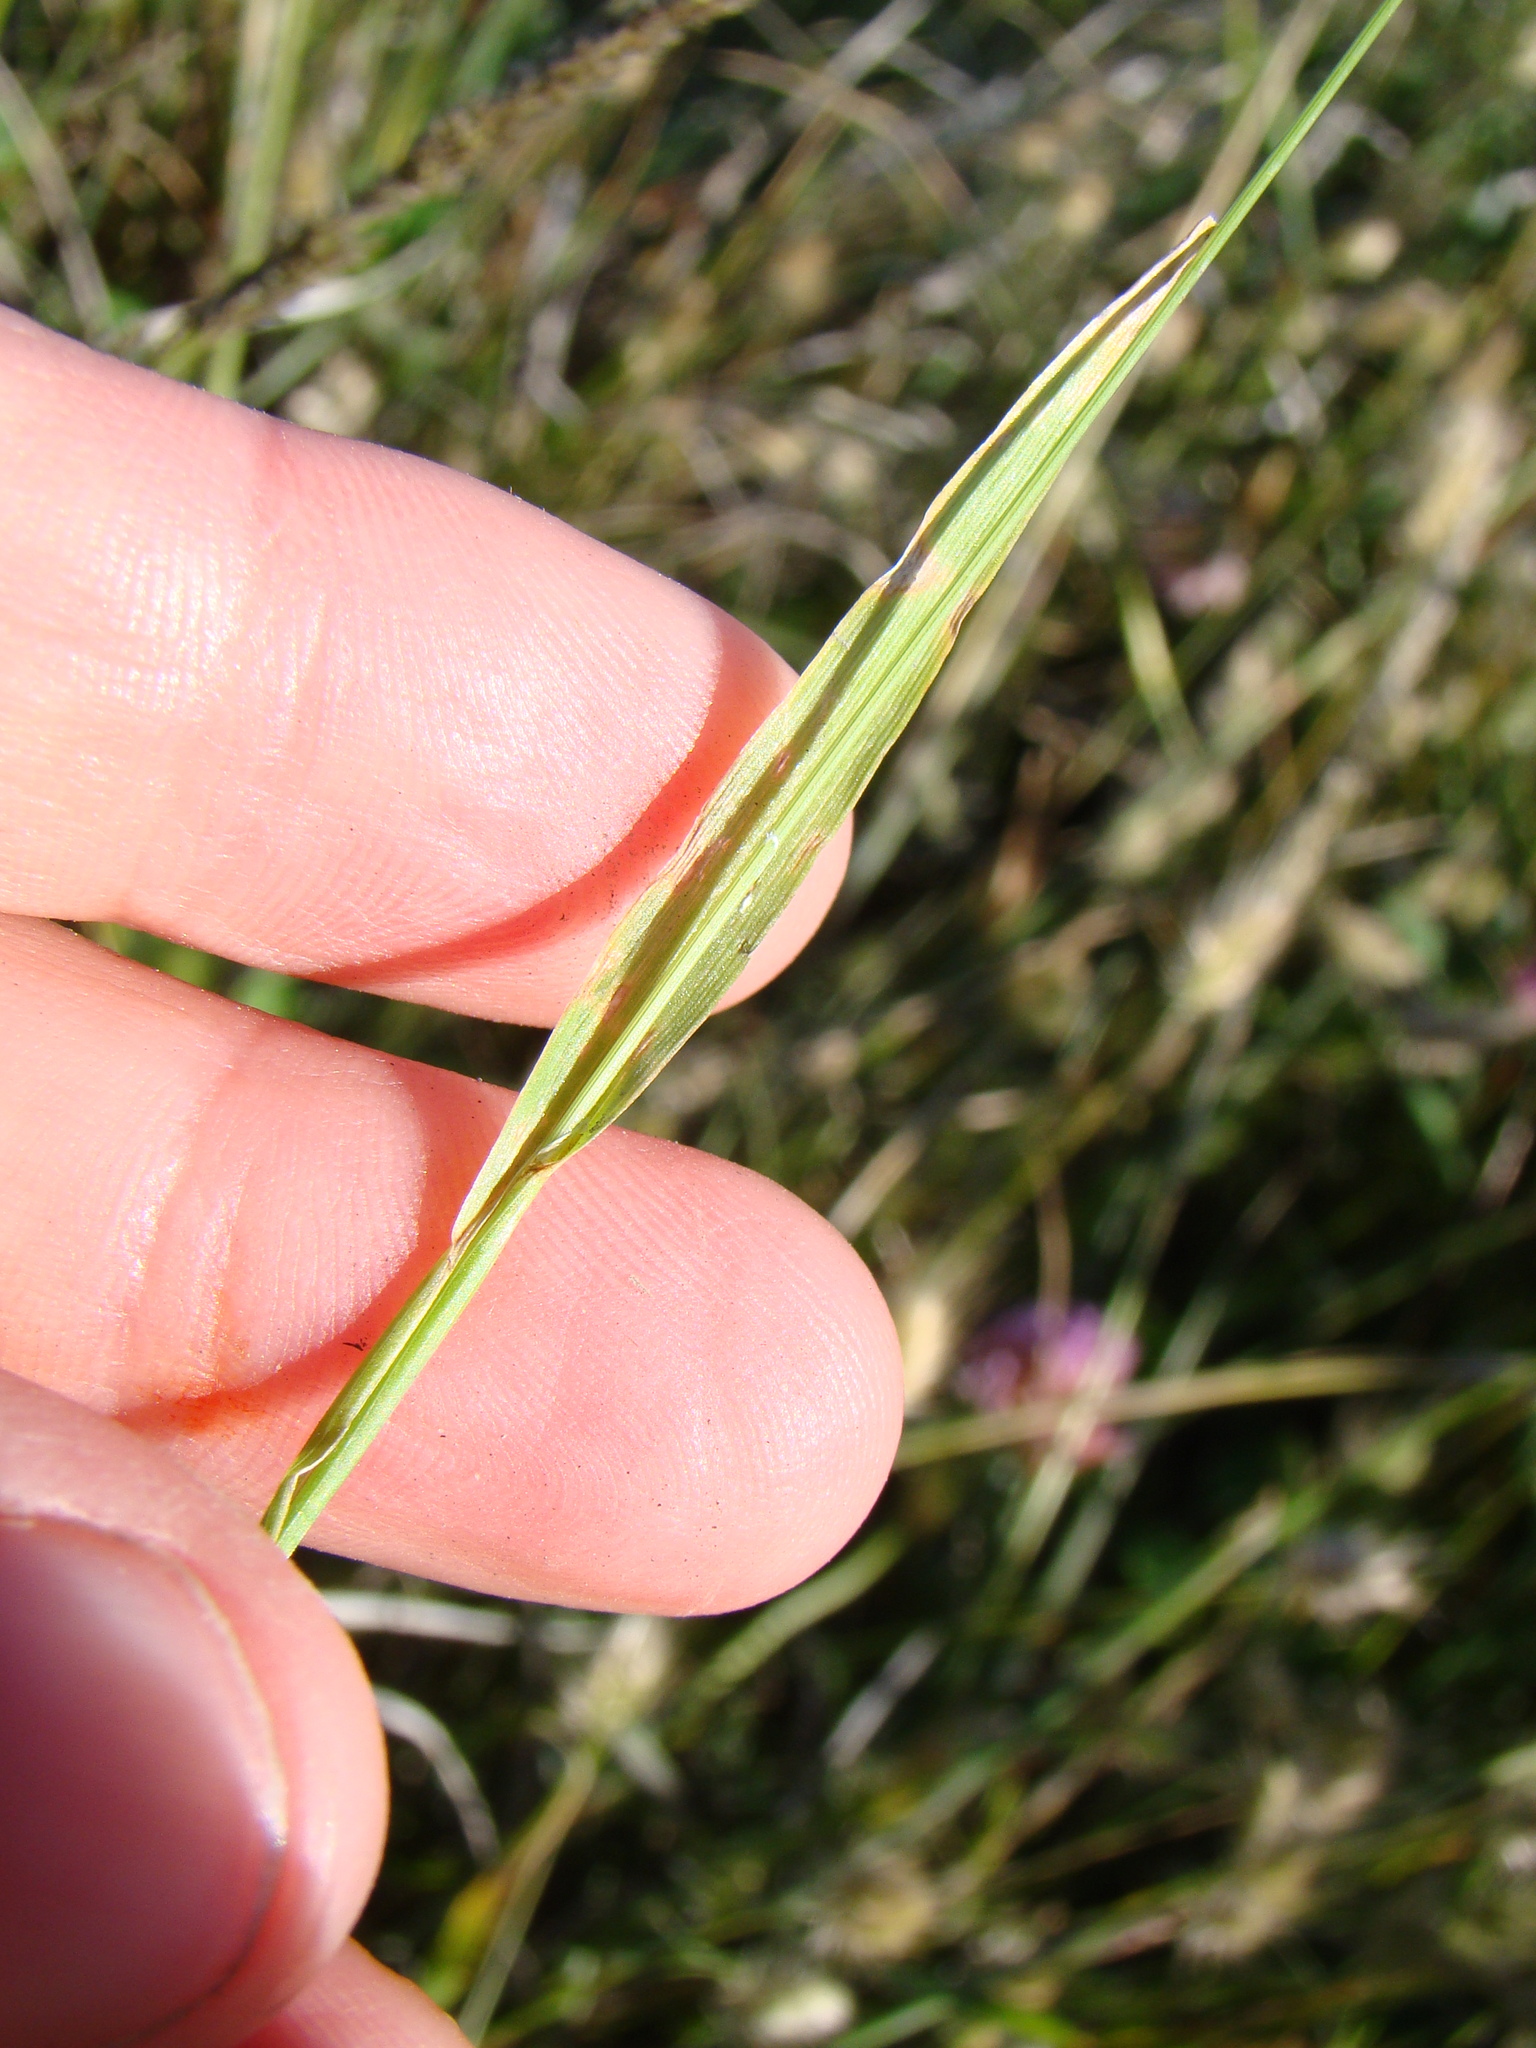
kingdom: Plantae
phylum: Tracheophyta
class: Liliopsida
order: Poales
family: Poaceae
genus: Cynosurus
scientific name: Cynosurus echinatus
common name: Rough dog's-tail
